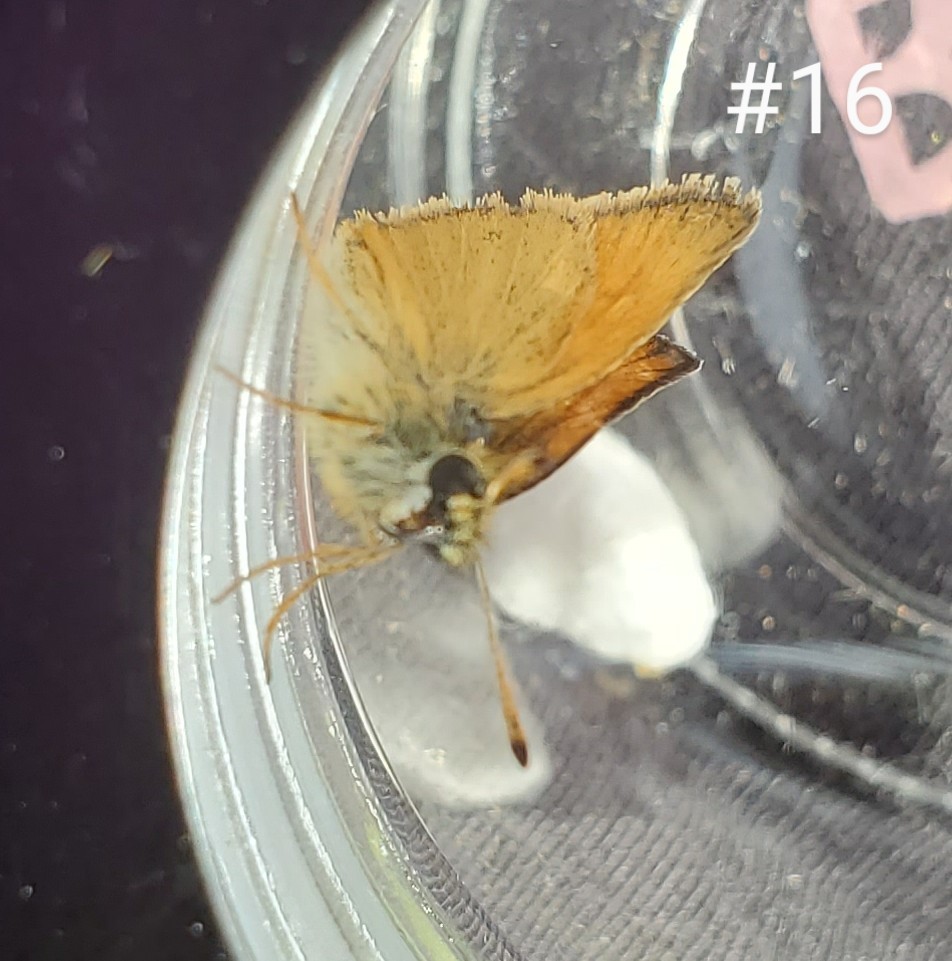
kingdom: Animalia
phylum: Arthropoda
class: Insecta
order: Lepidoptera
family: Hesperiidae
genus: Thymelicus
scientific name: Thymelicus lineola
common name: Essex skipper
